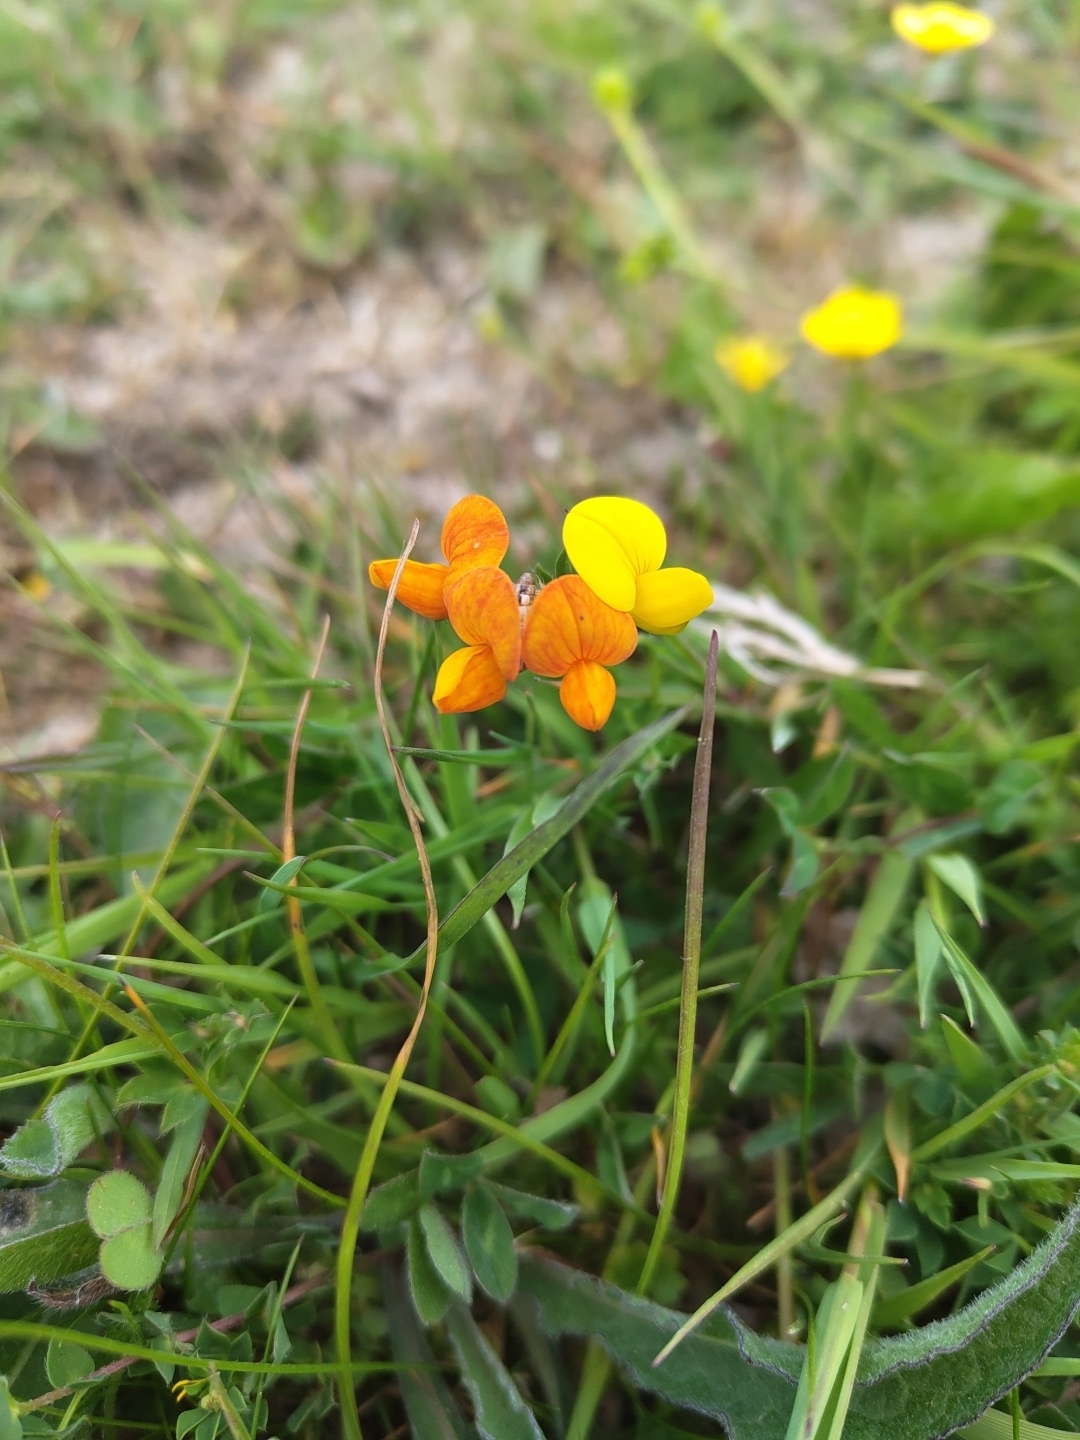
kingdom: Plantae
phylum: Tracheophyta
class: Magnoliopsida
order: Fabales
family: Fabaceae
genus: Lotus
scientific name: Lotus corniculatus
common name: Common bird's-foot-trefoil
